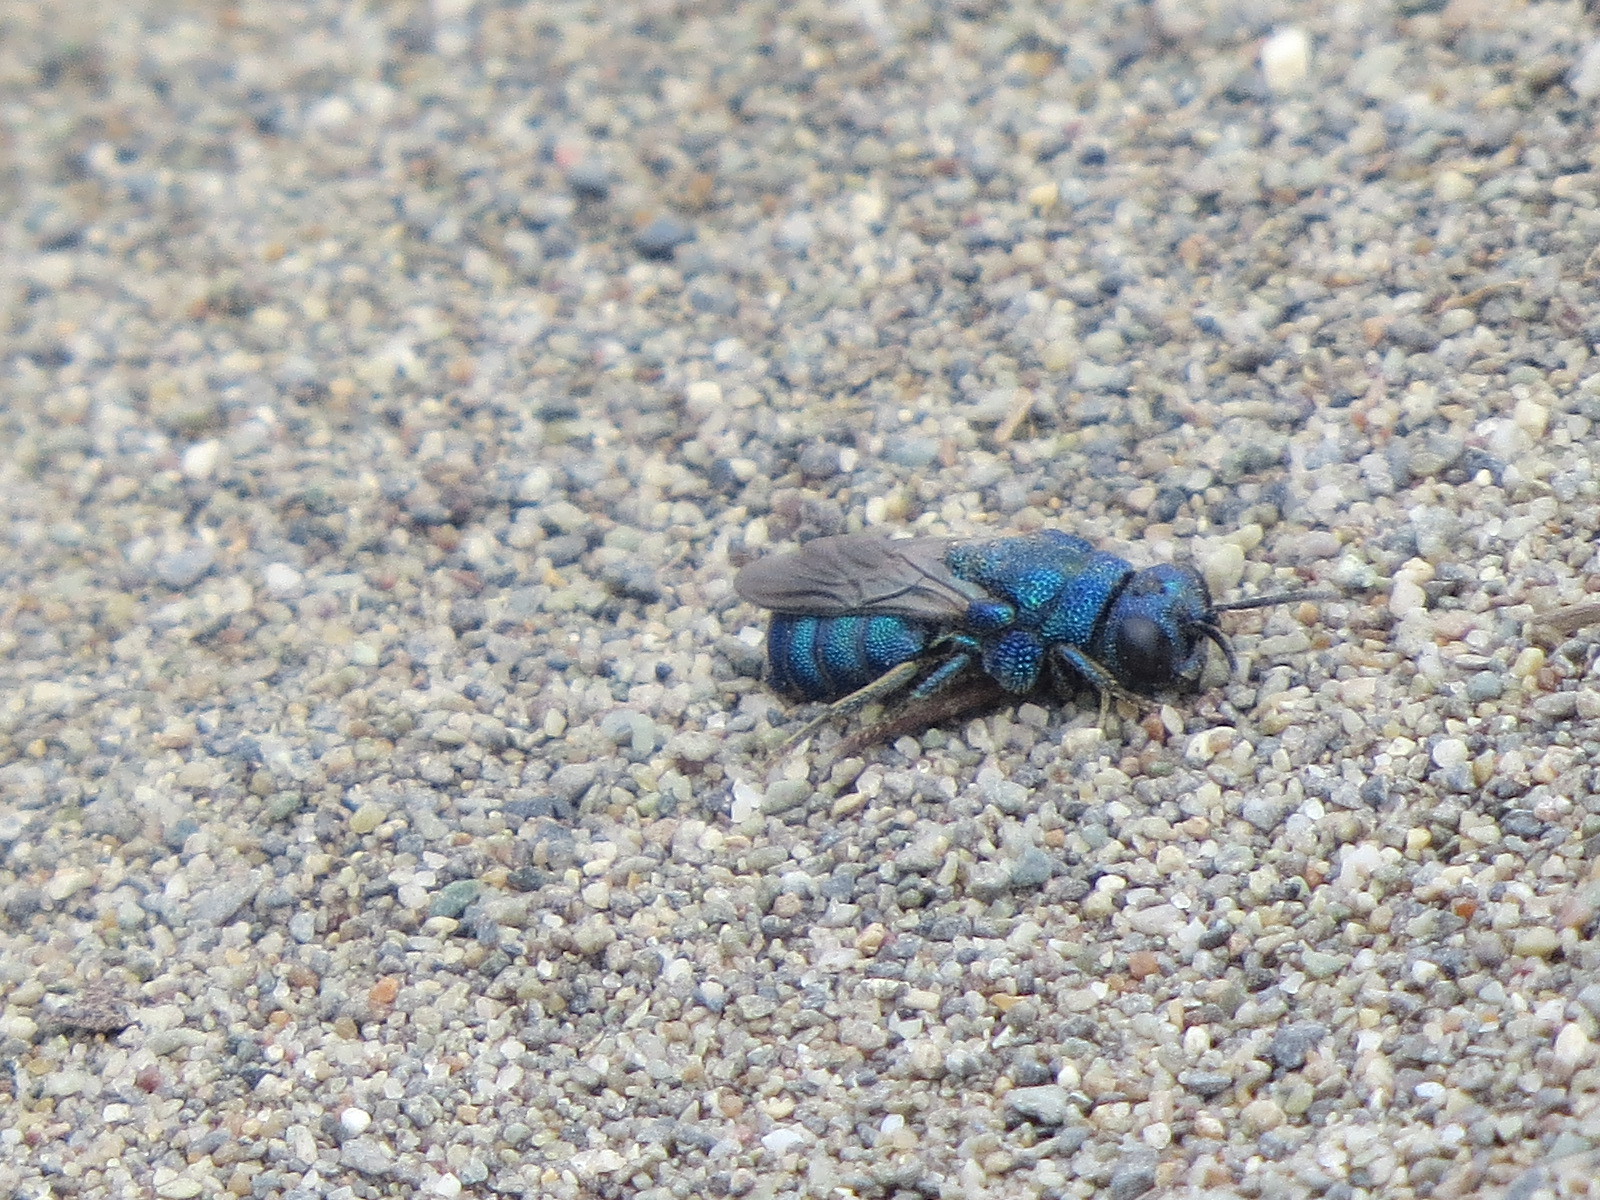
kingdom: Animalia
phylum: Arthropoda
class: Insecta
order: Hymenoptera
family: Chrysididae
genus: Parnopes
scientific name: Parnopes
